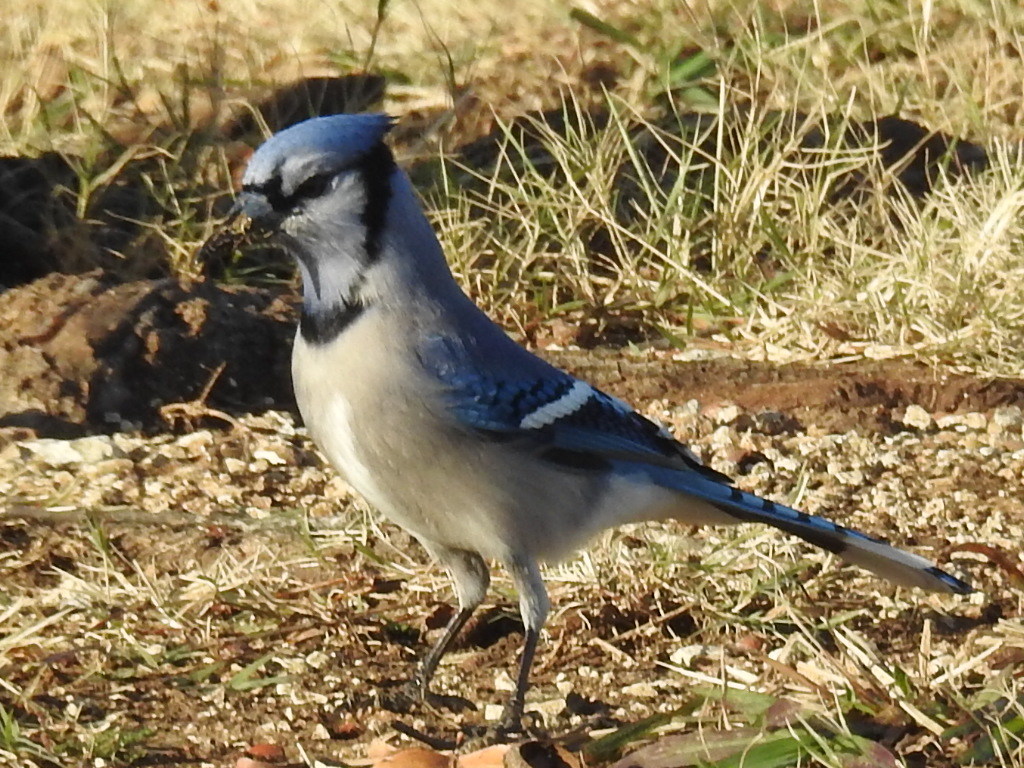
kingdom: Animalia
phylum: Chordata
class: Aves
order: Passeriformes
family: Corvidae
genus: Cyanocitta
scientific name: Cyanocitta cristata
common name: Blue jay
